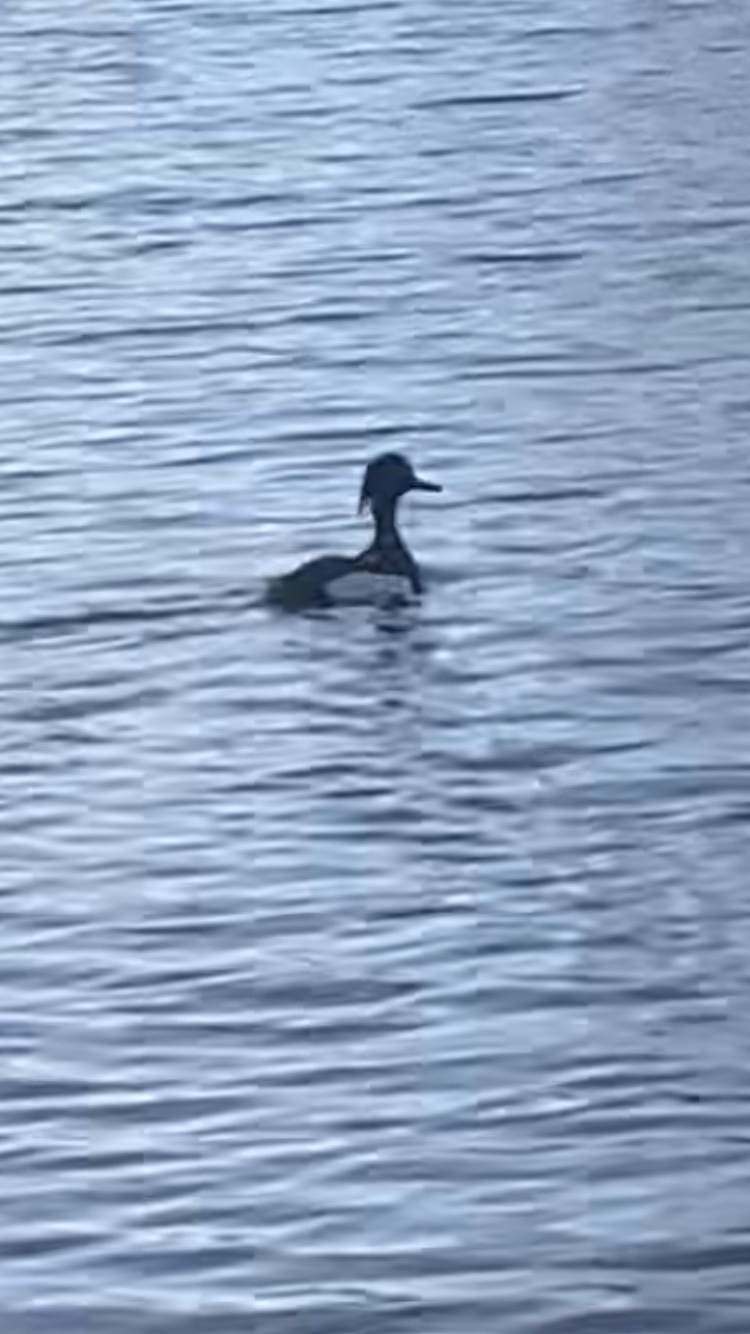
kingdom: Animalia
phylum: Chordata
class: Aves
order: Anseriformes
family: Anatidae
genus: Aythya
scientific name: Aythya fuligula
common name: Tufted duck
